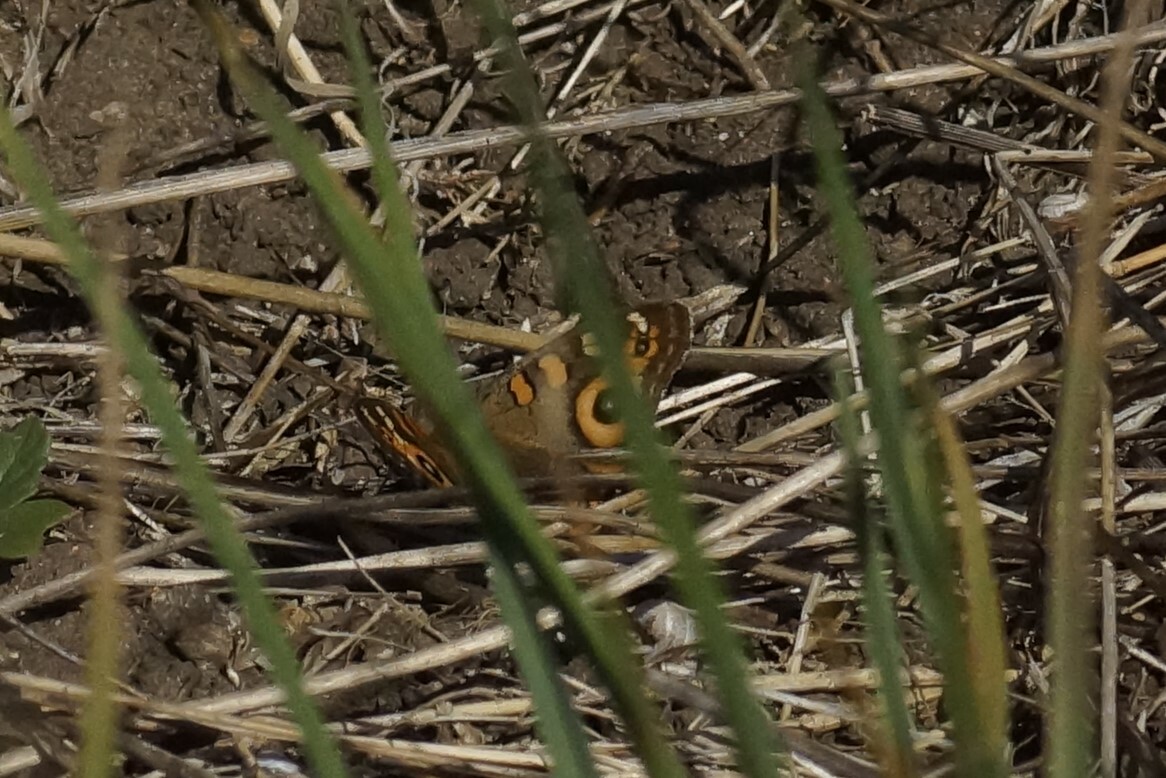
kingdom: Animalia
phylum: Arthropoda
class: Insecta
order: Lepidoptera
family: Nymphalidae
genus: Junonia
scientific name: Junonia villida
